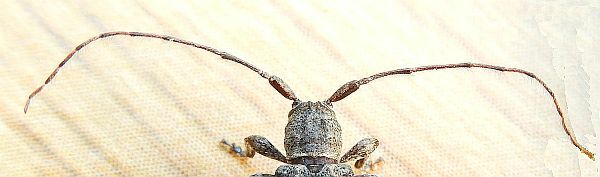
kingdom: Animalia
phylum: Arthropoda
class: Insecta
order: Coleoptera
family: Cerambycidae
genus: Ecyrus
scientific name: Ecyrus dasycerus
